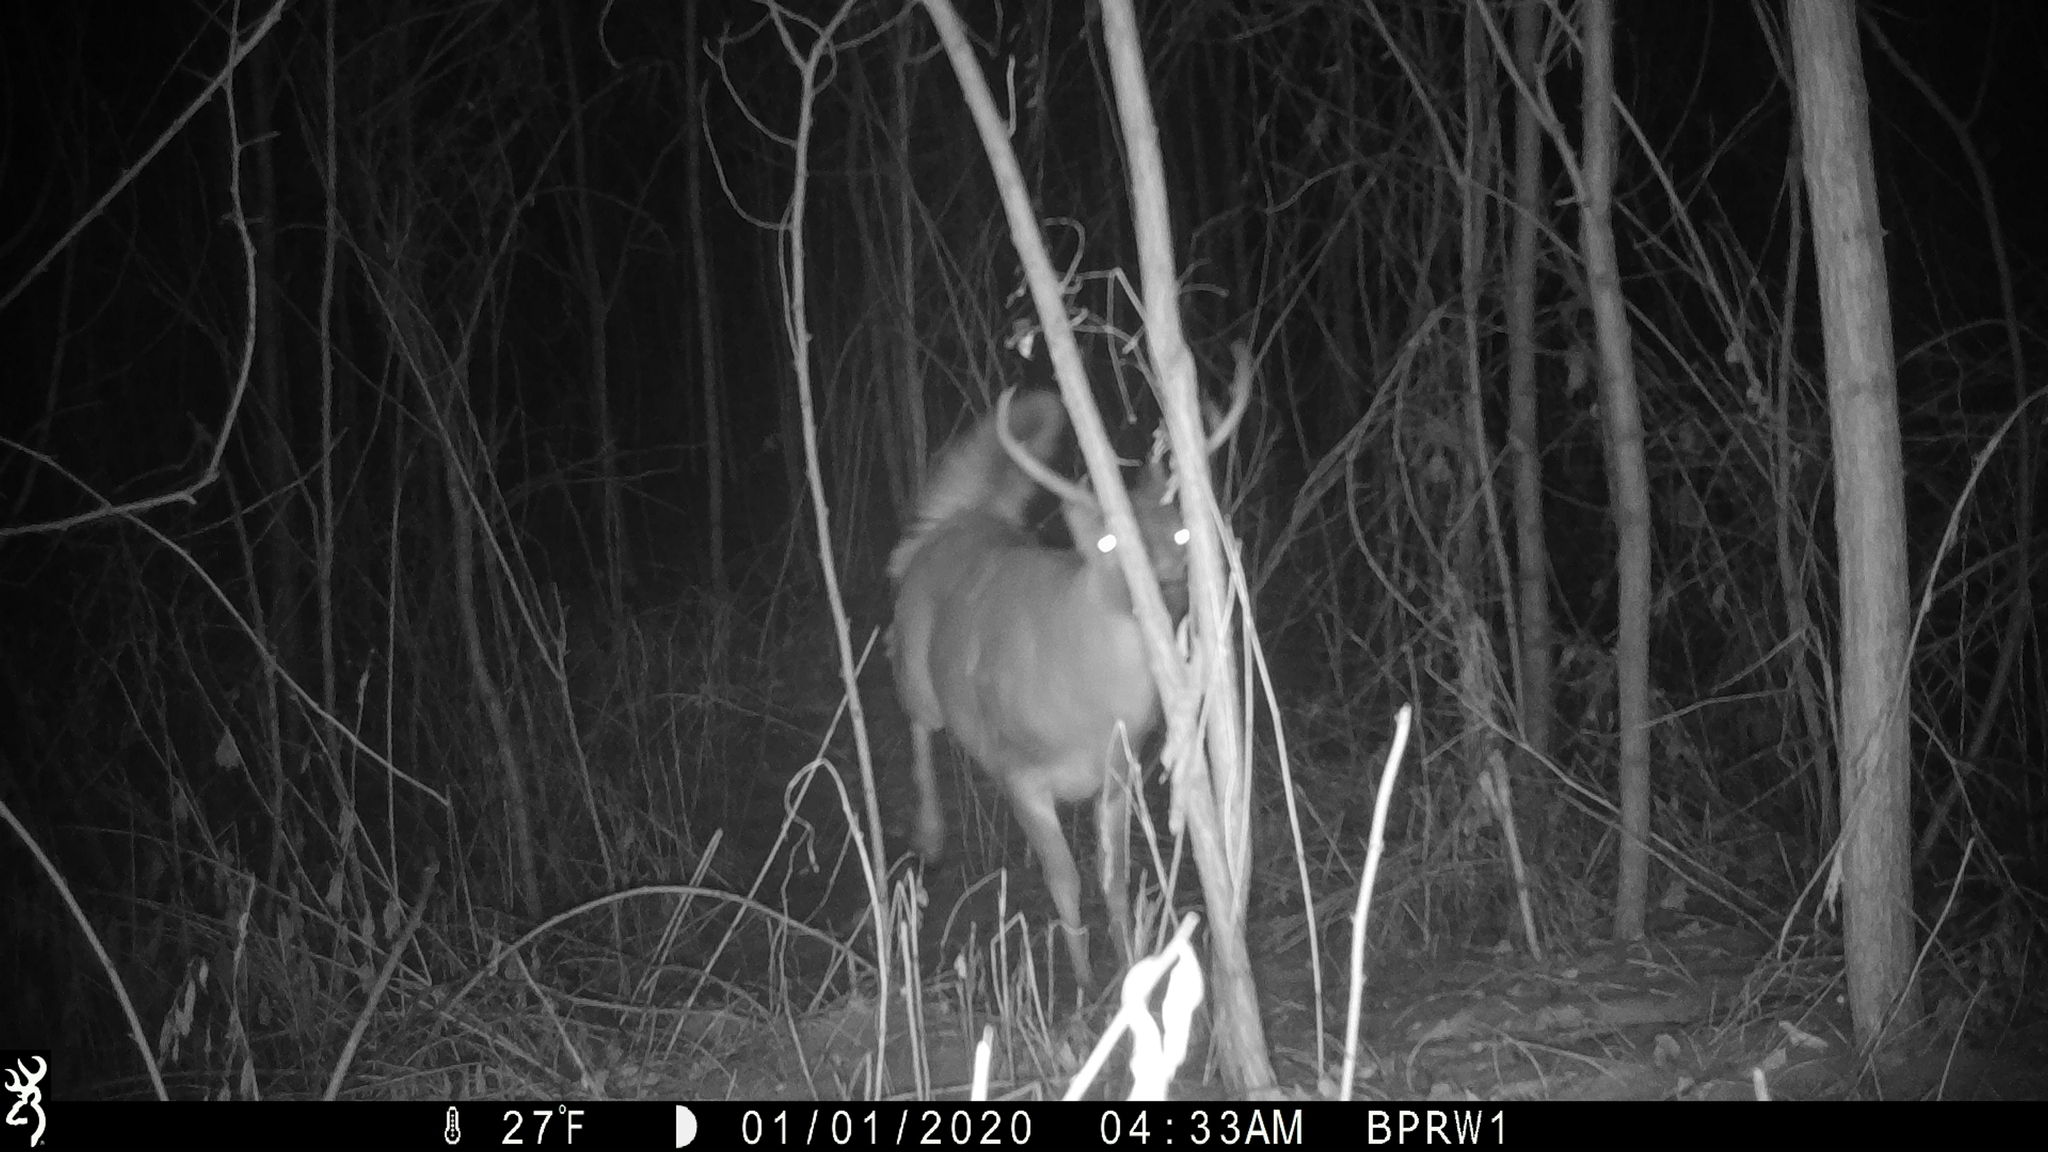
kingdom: Animalia
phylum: Chordata
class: Mammalia
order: Artiodactyla
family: Cervidae
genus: Odocoileus
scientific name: Odocoileus virginianus
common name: White-tailed deer
